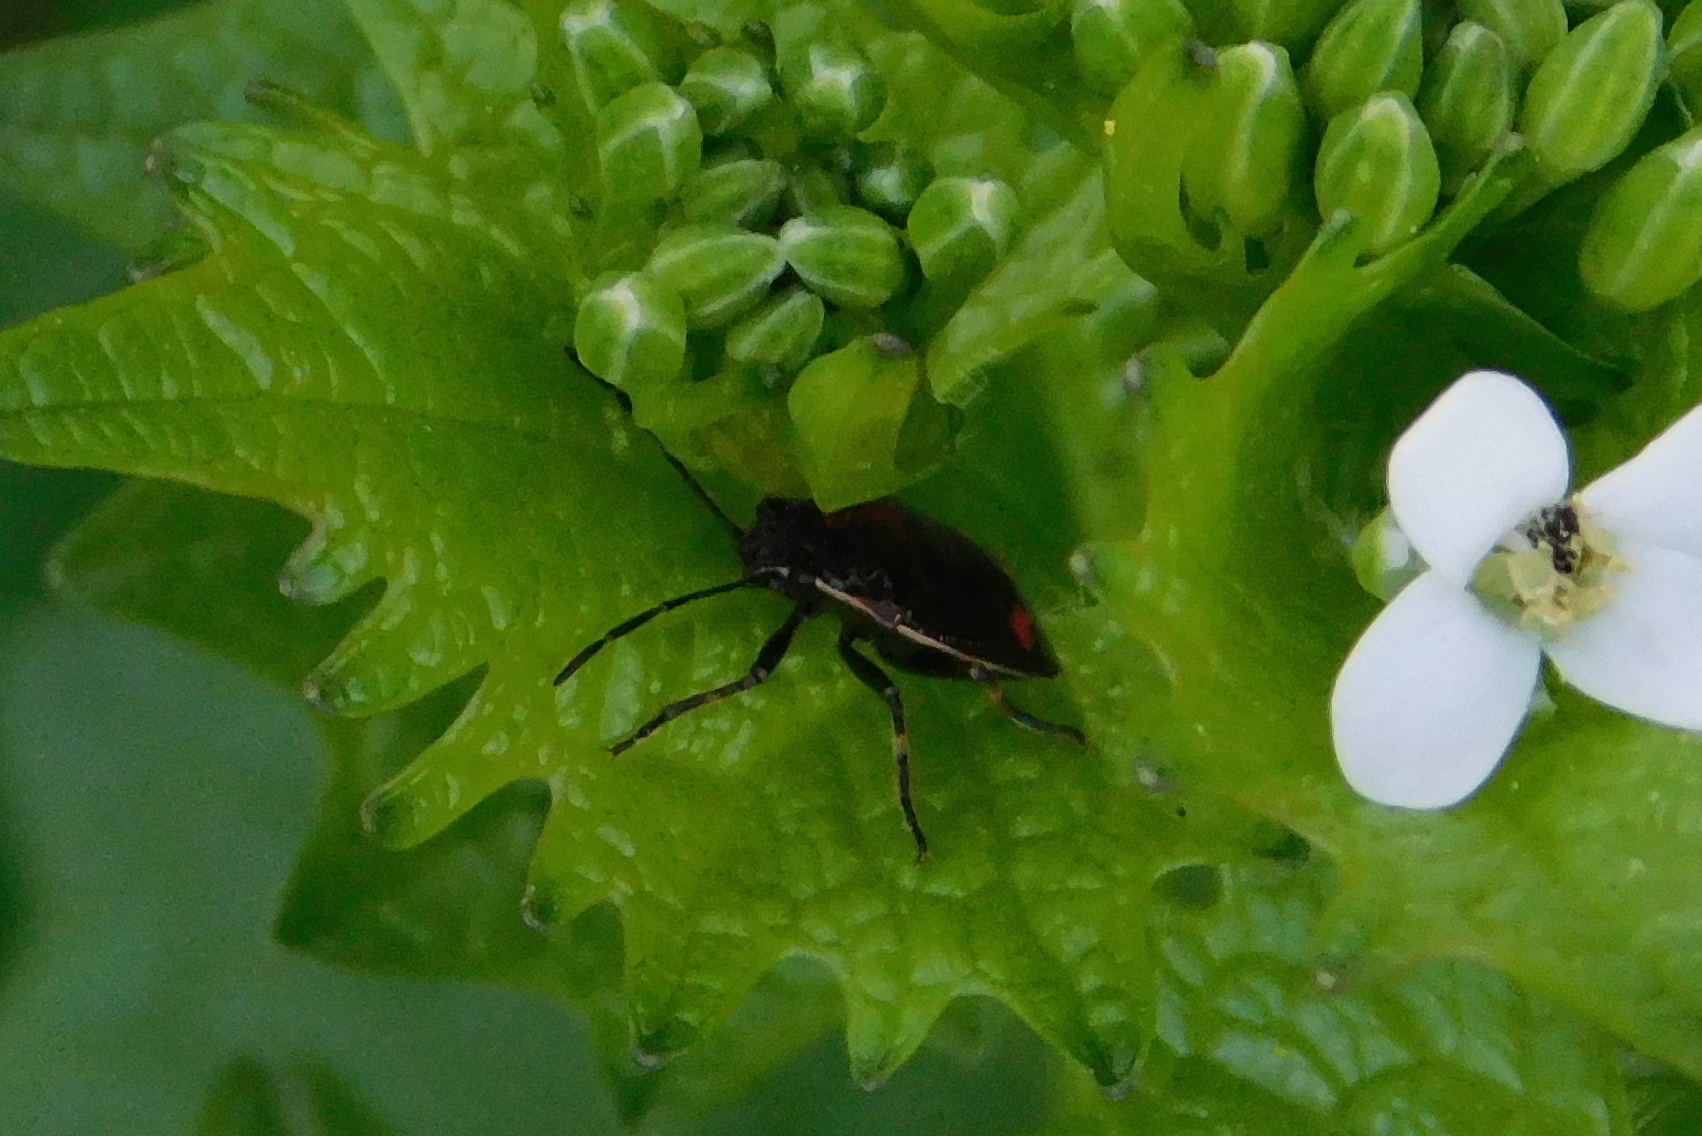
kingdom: Animalia
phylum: Arthropoda
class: Insecta
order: Hemiptera
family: Pentatomidae
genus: Eurydema
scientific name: Eurydema oleracea
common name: Cabbage bug
